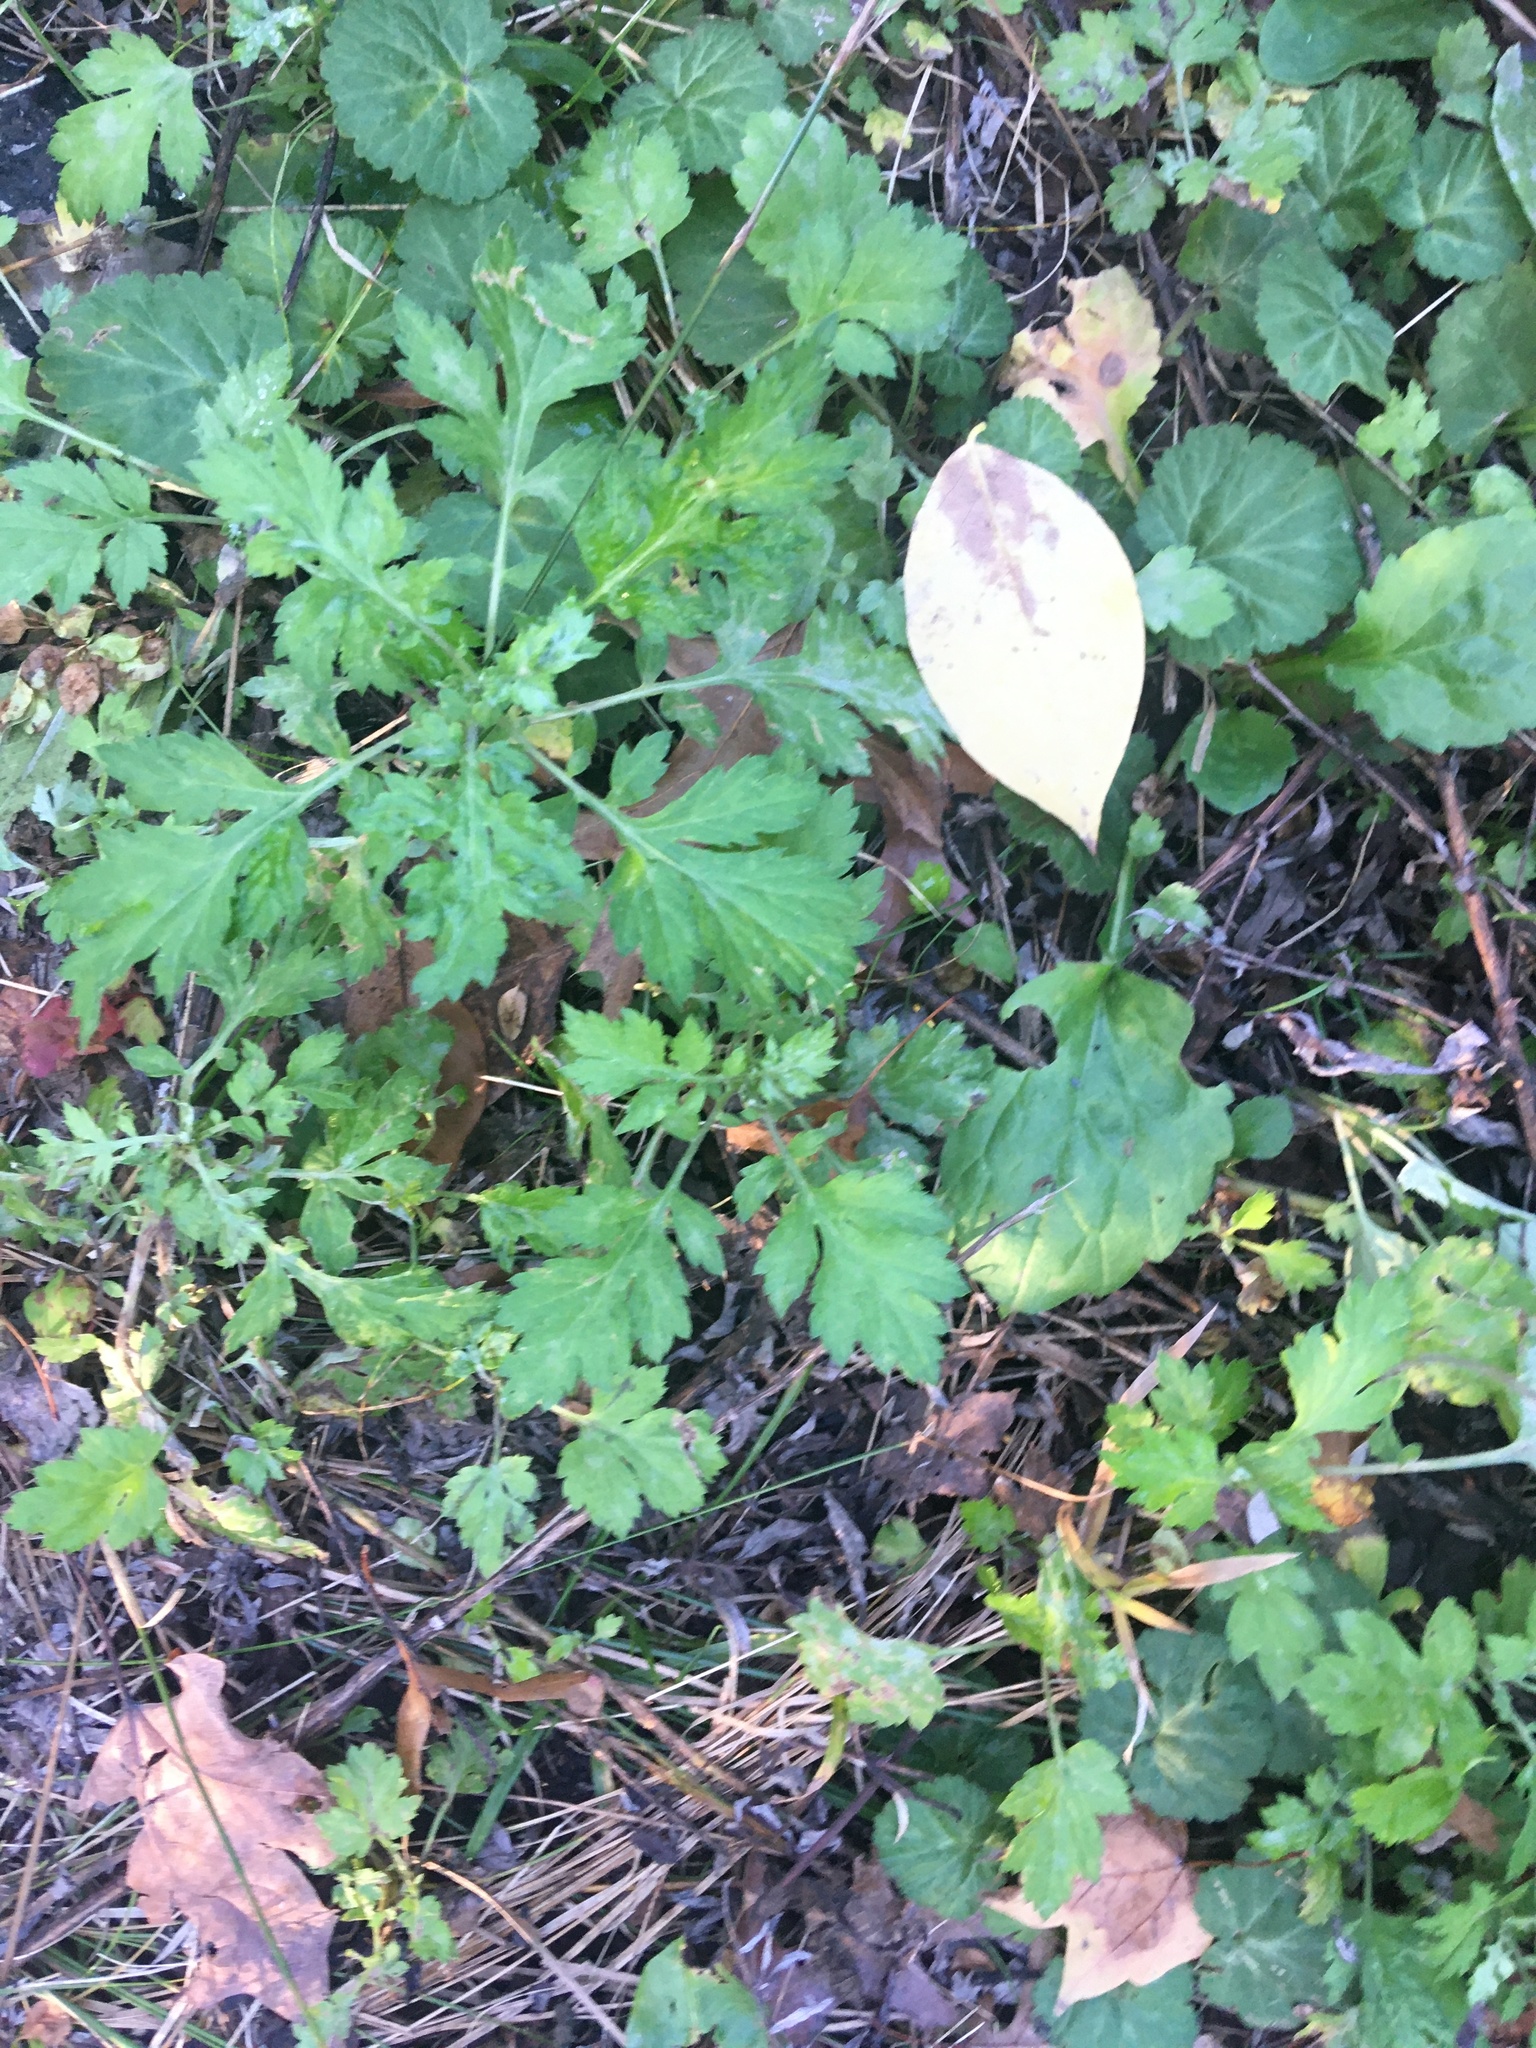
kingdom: Plantae
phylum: Tracheophyta
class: Magnoliopsida
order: Asterales
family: Asteraceae
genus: Artemisia
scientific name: Artemisia vulgaris
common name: Mugwort
